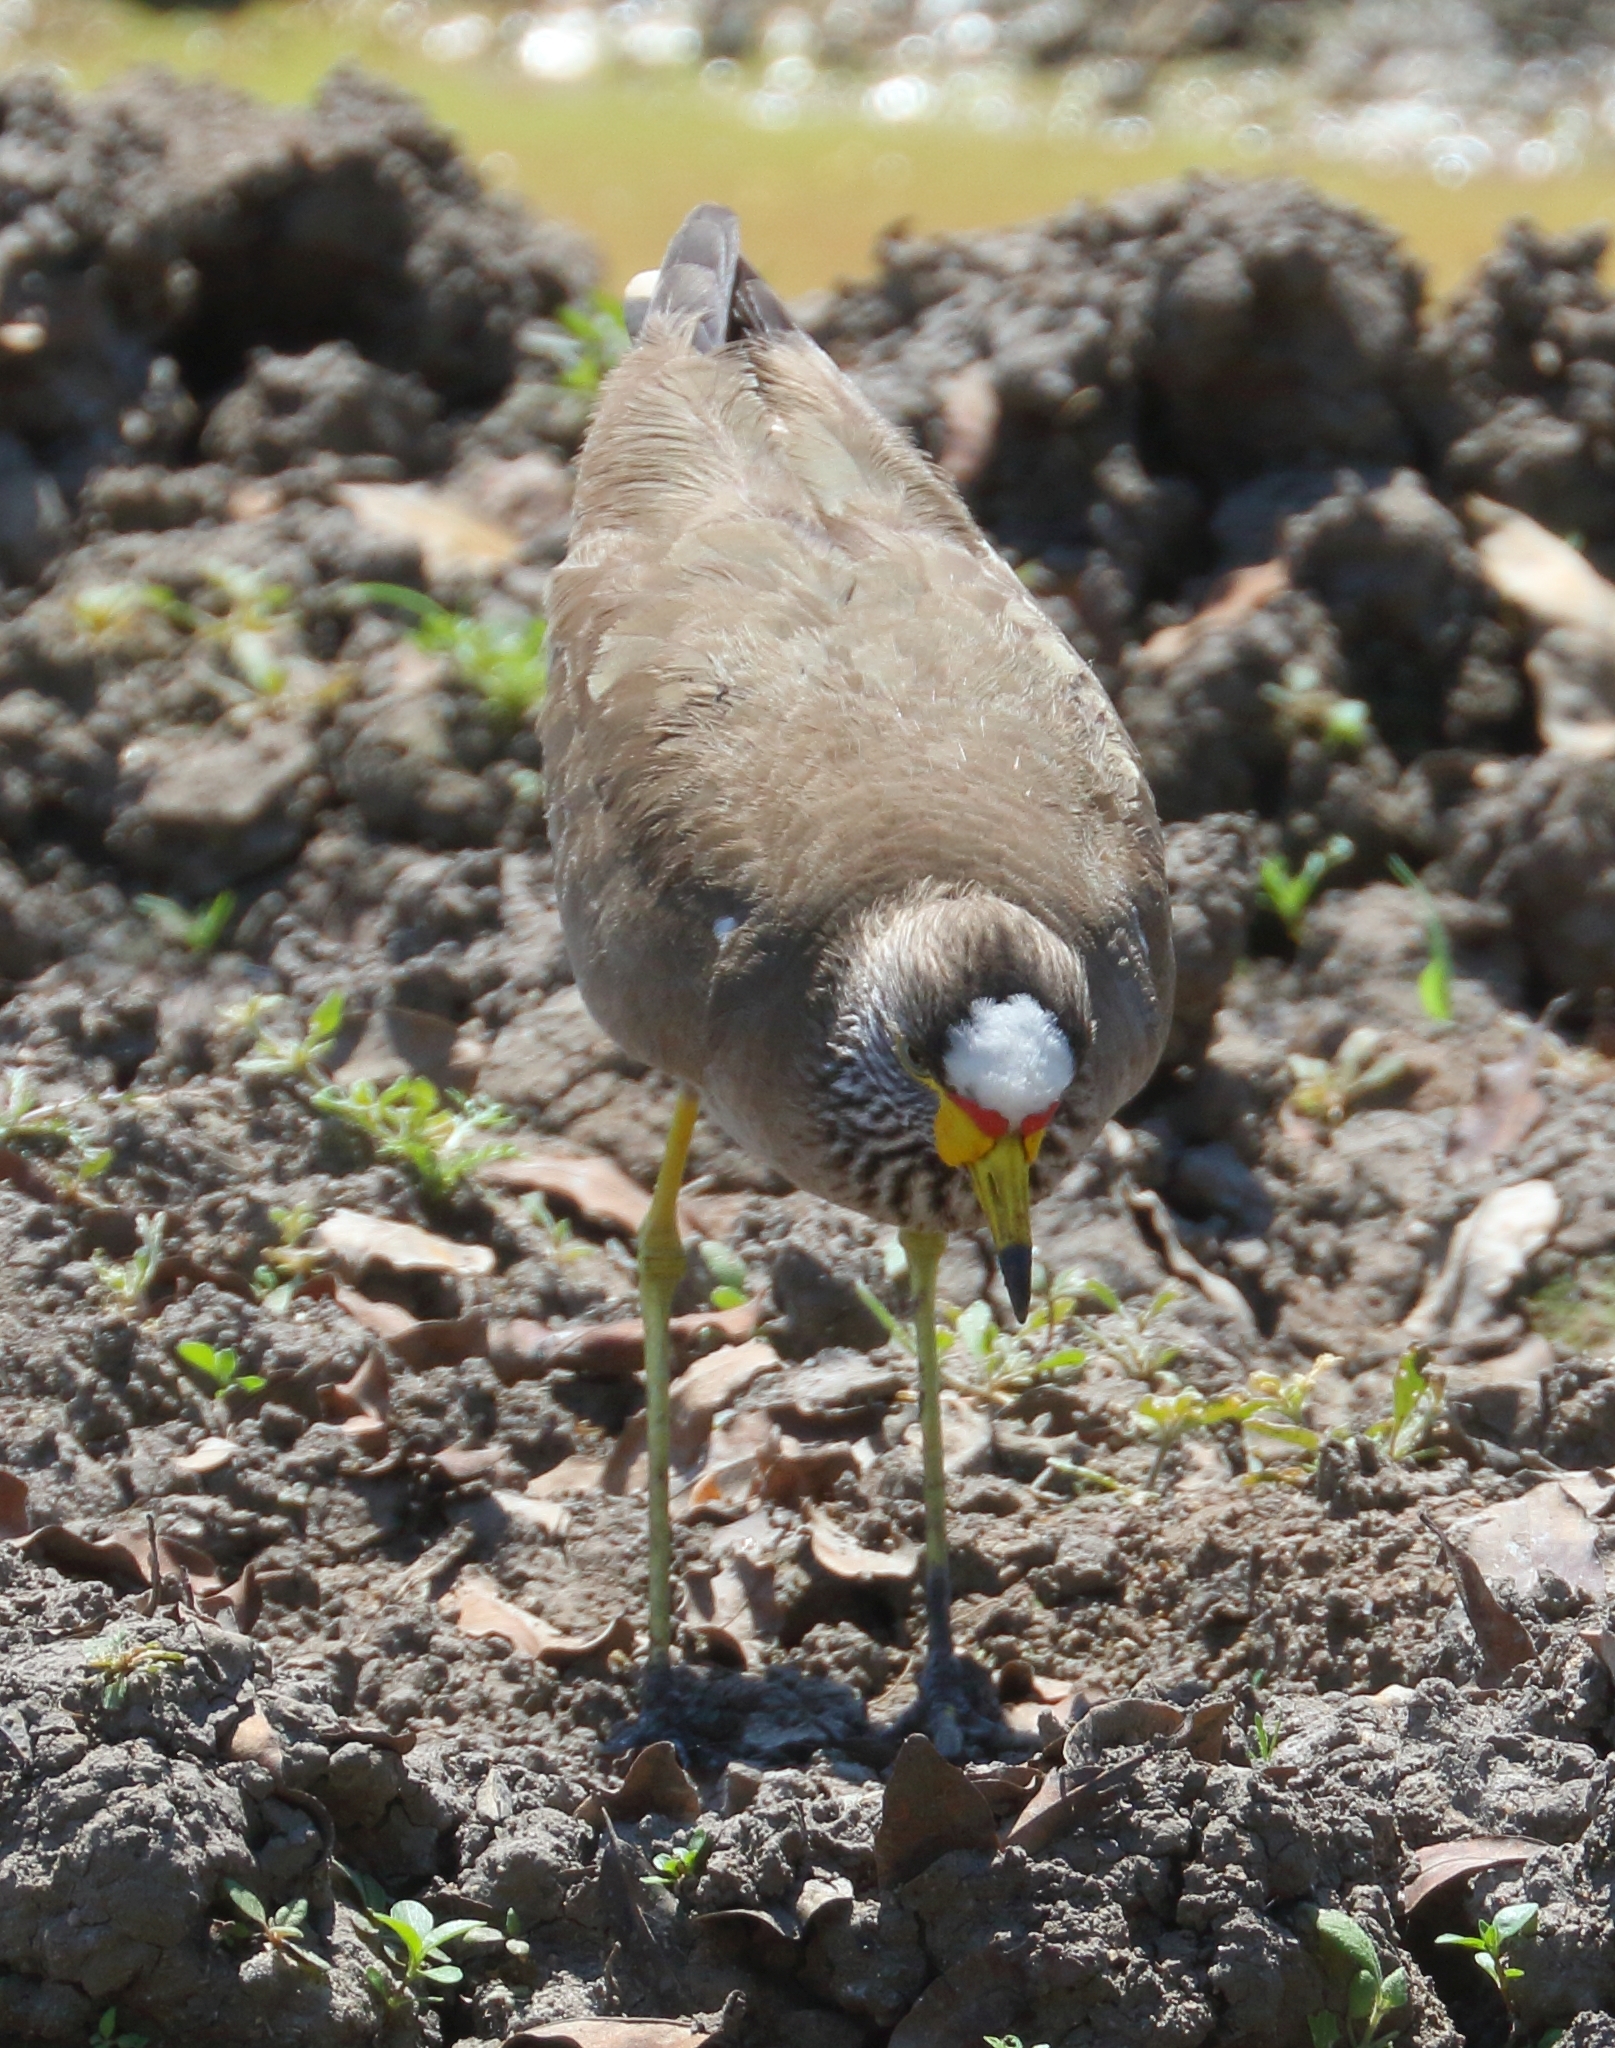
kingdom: Animalia
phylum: Chordata
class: Aves
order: Charadriiformes
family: Charadriidae
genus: Vanellus
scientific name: Vanellus senegallus
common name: African wattled lapwing
